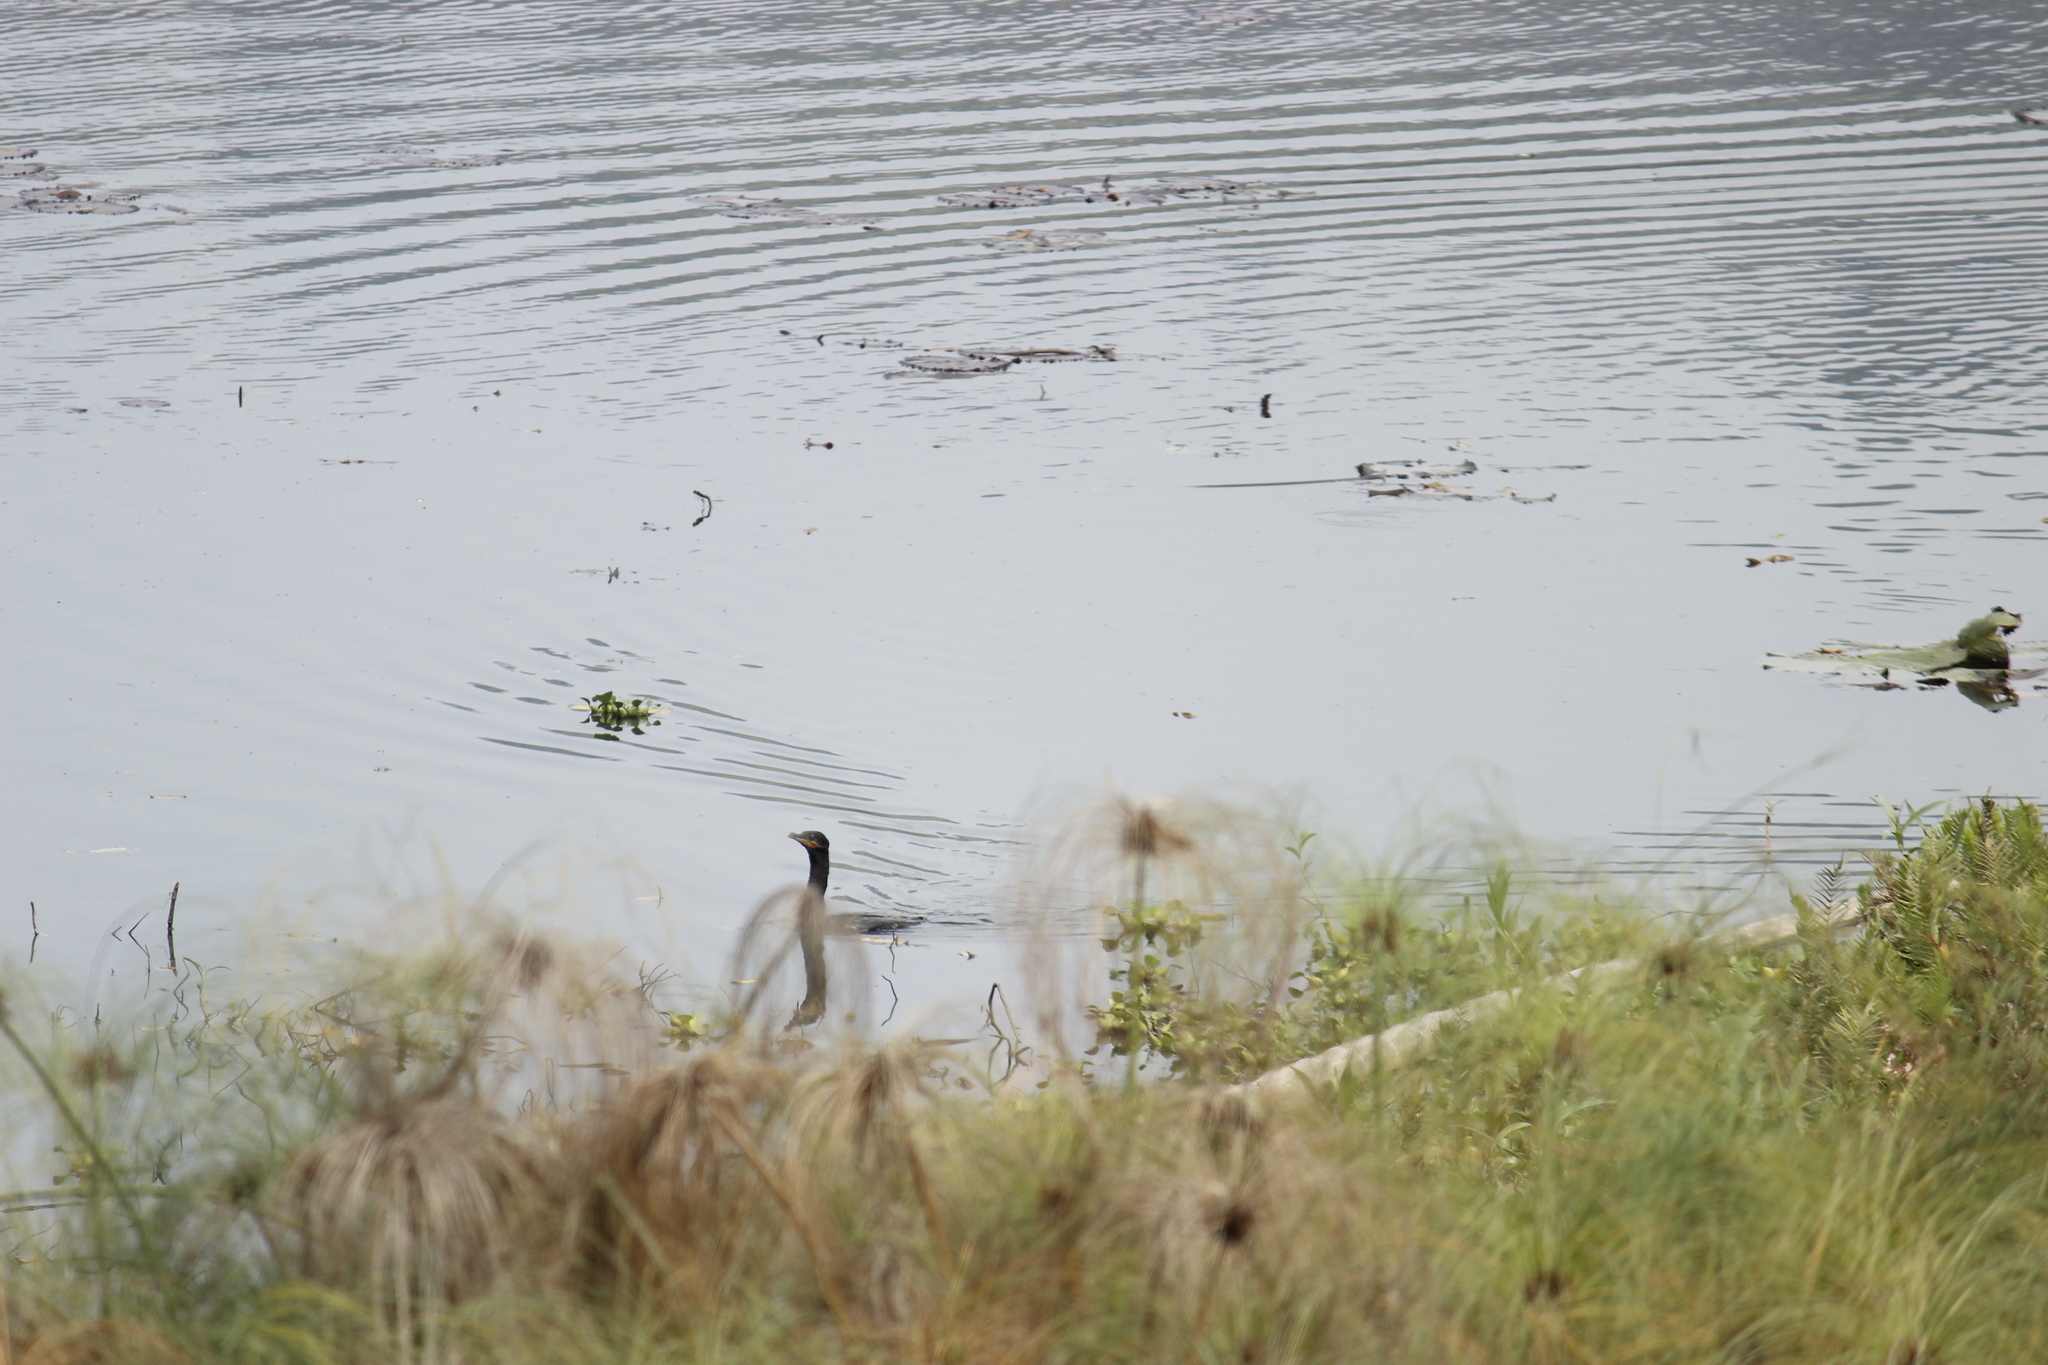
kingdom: Animalia
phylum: Chordata
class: Aves
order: Suliformes
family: Phalacrocoracidae
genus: Phalacrocorax
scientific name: Phalacrocorax brasilianus
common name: Neotropic cormorant
